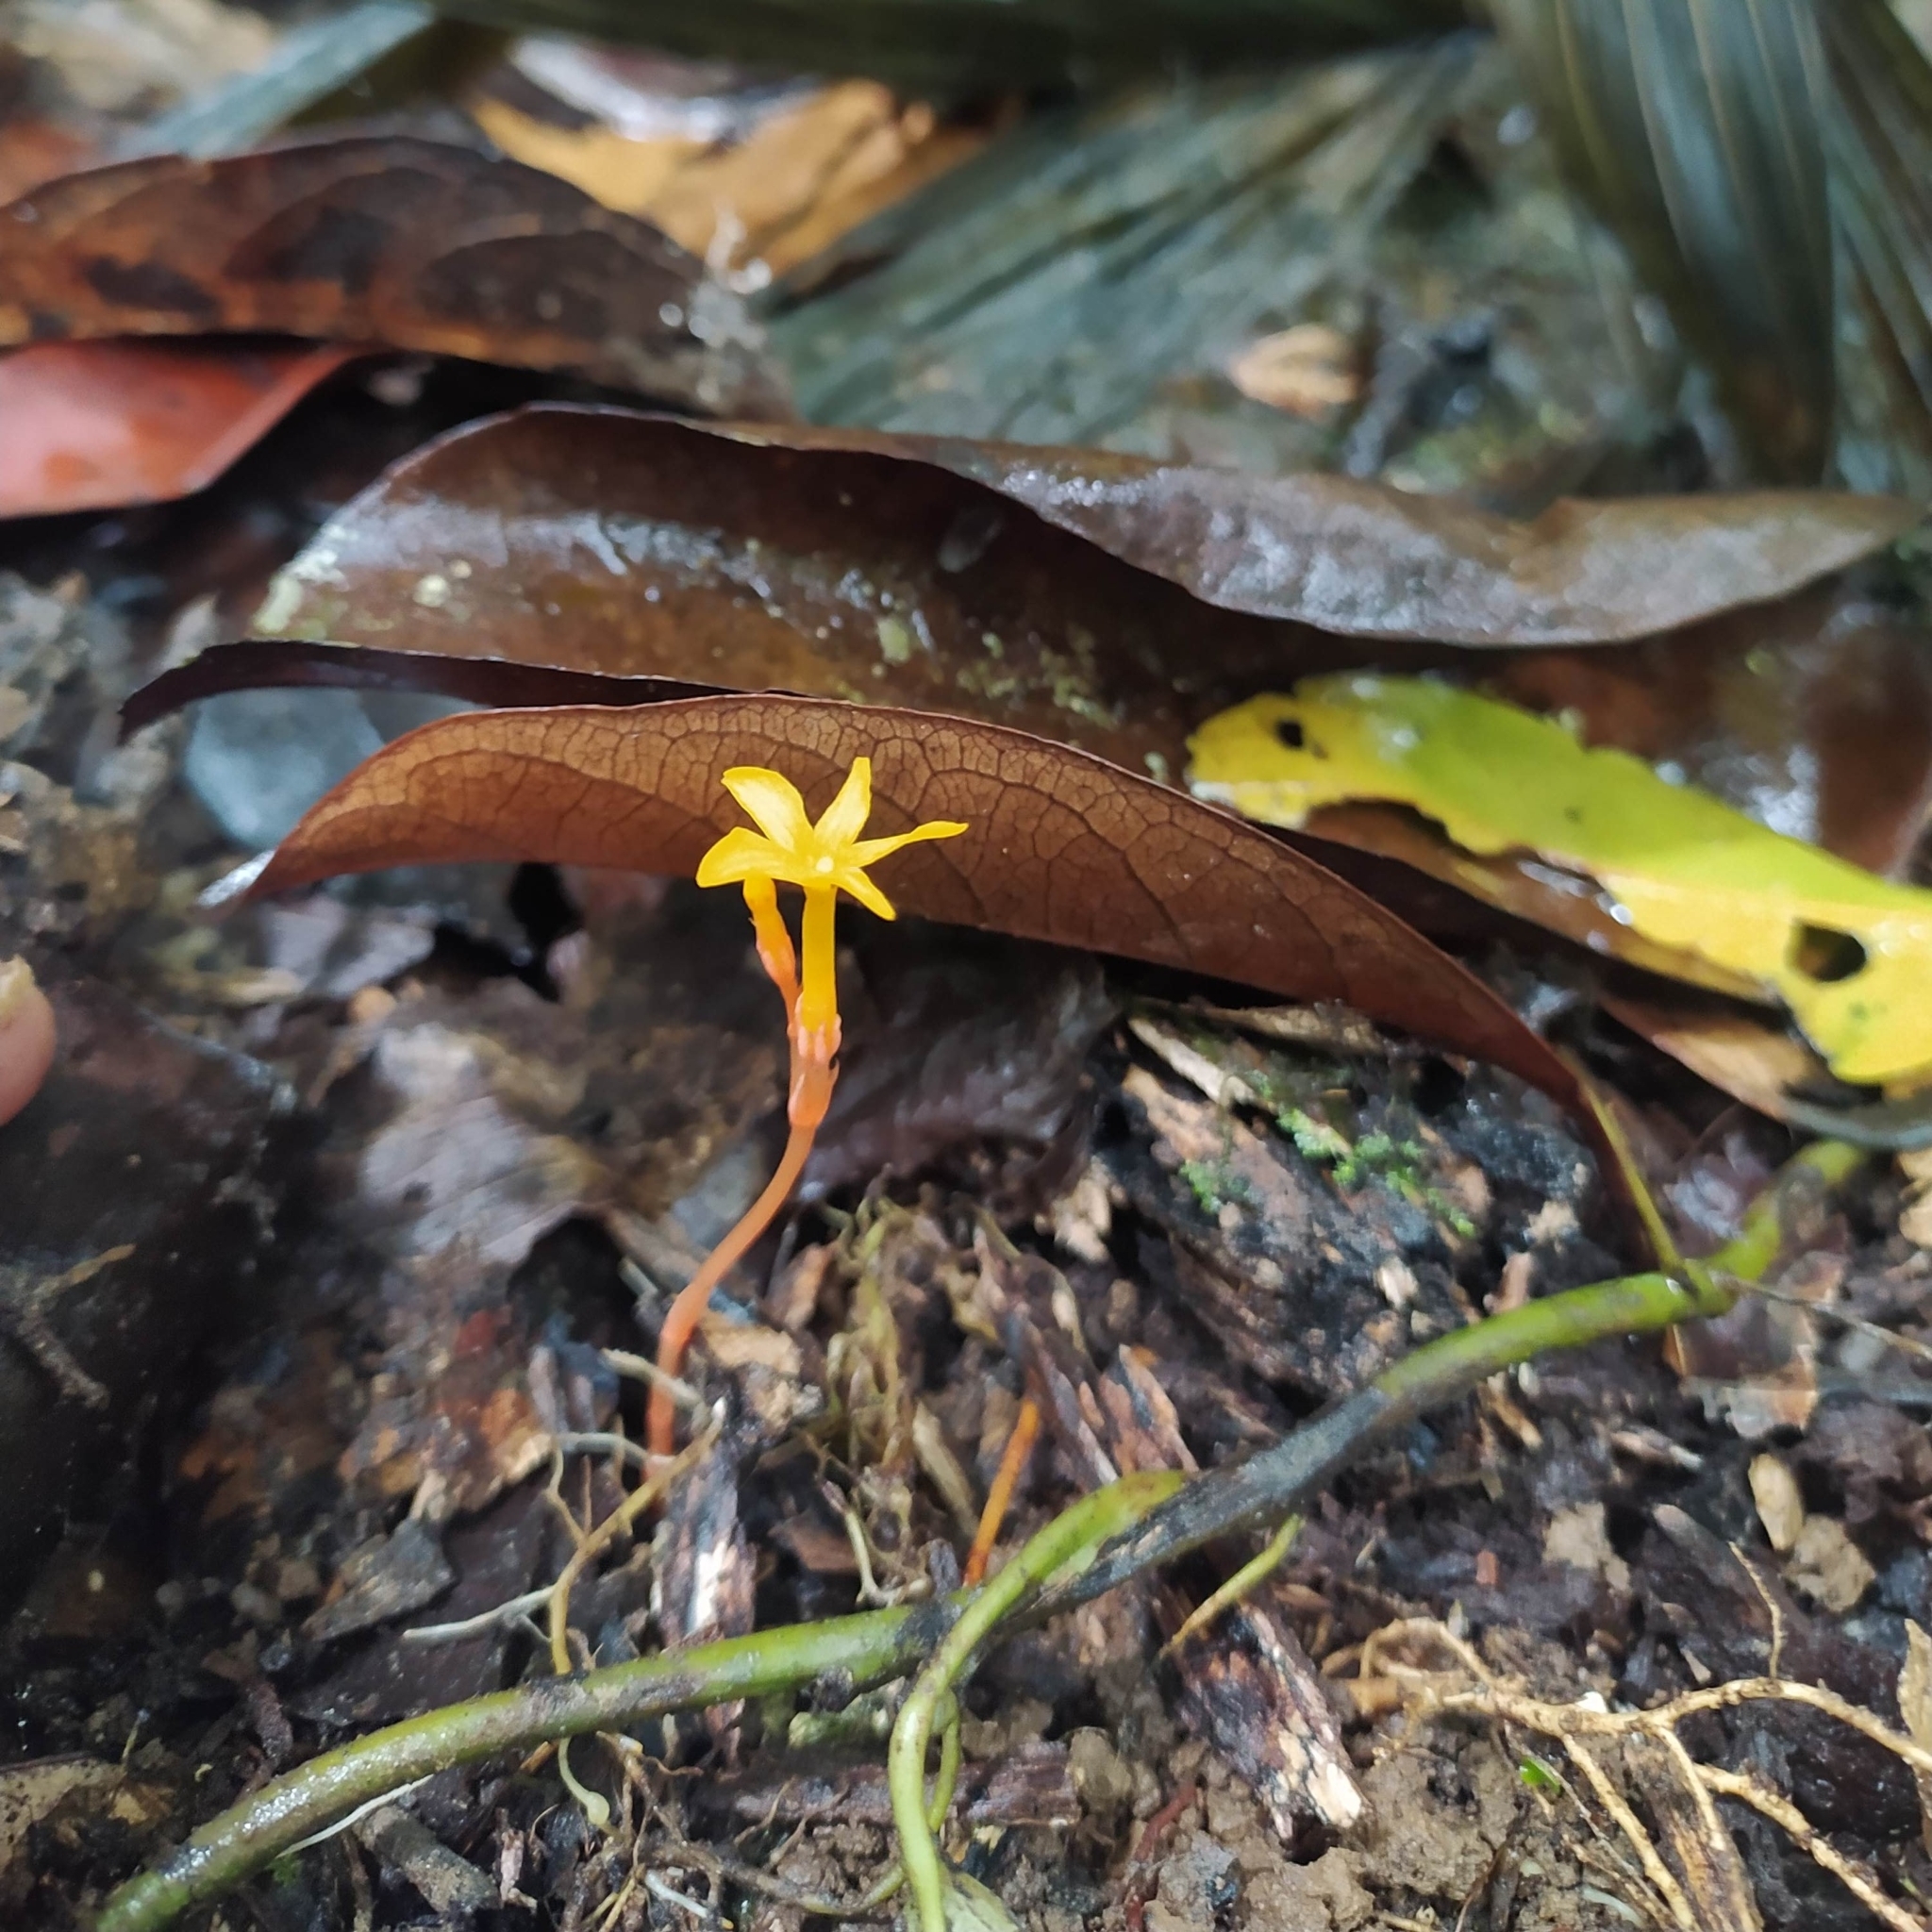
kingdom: Plantae
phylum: Tracheophyta
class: Magnoliopsida
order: Gentianales
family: Gentianaceae
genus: Voyria
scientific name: Voyria aurantiaca
